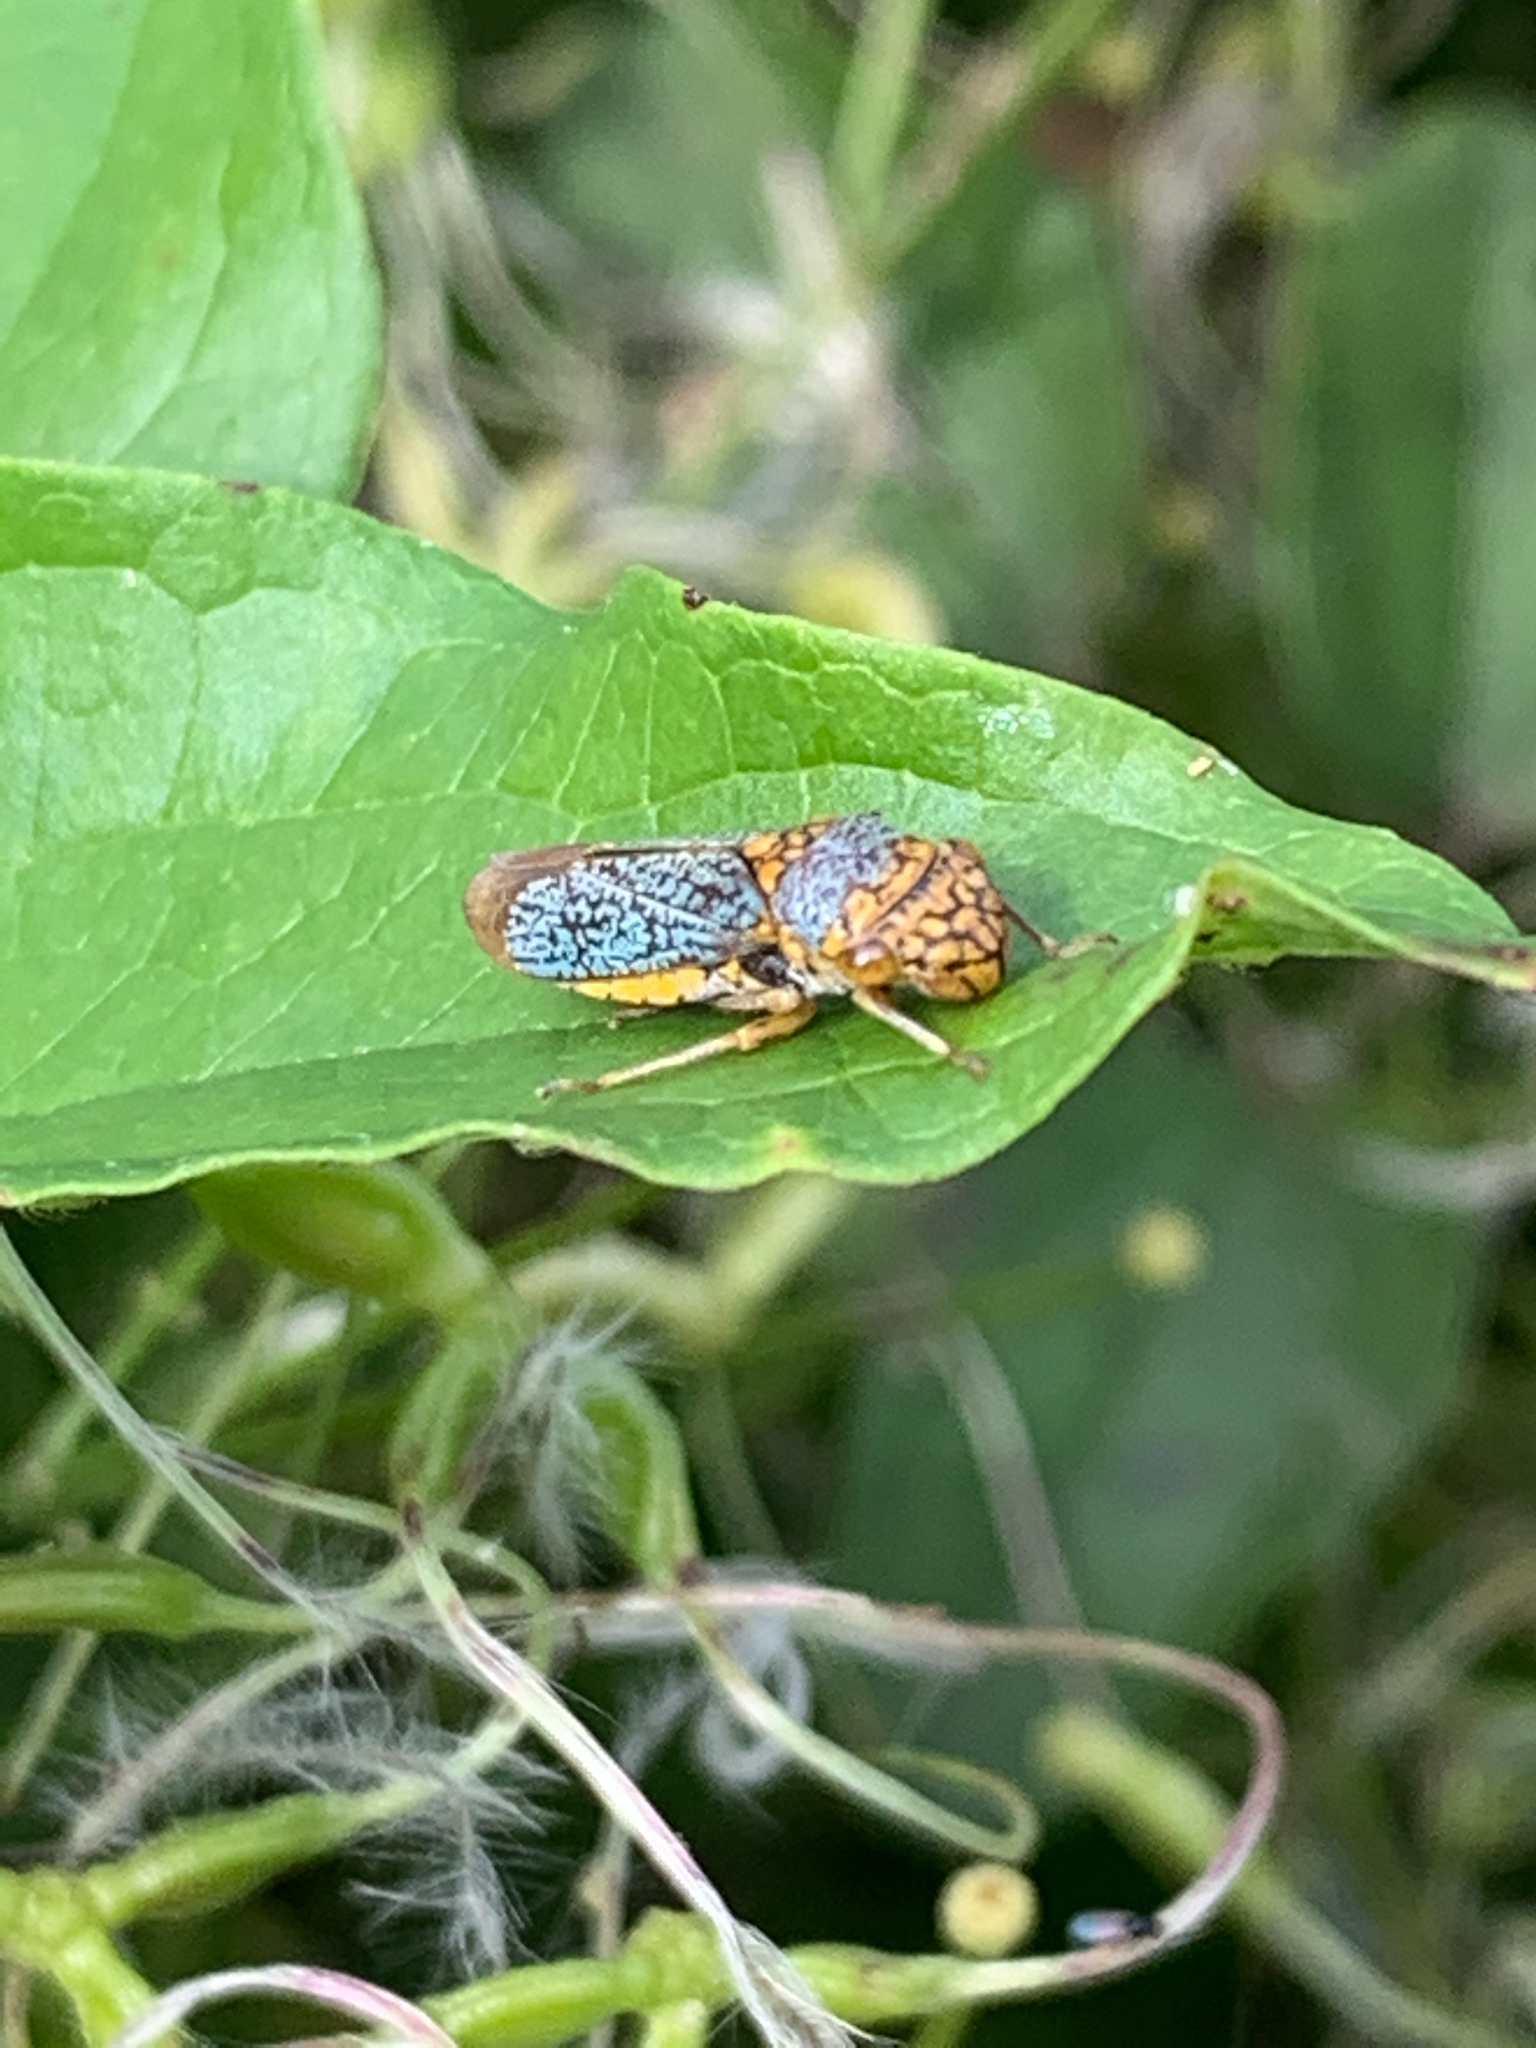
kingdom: Animalia
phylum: Arthropoda
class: Insecta
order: Hemiptera
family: Cicadellidae
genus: Oncometopia
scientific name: Oncometopia orbona
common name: Broad-headed sharpshooter
